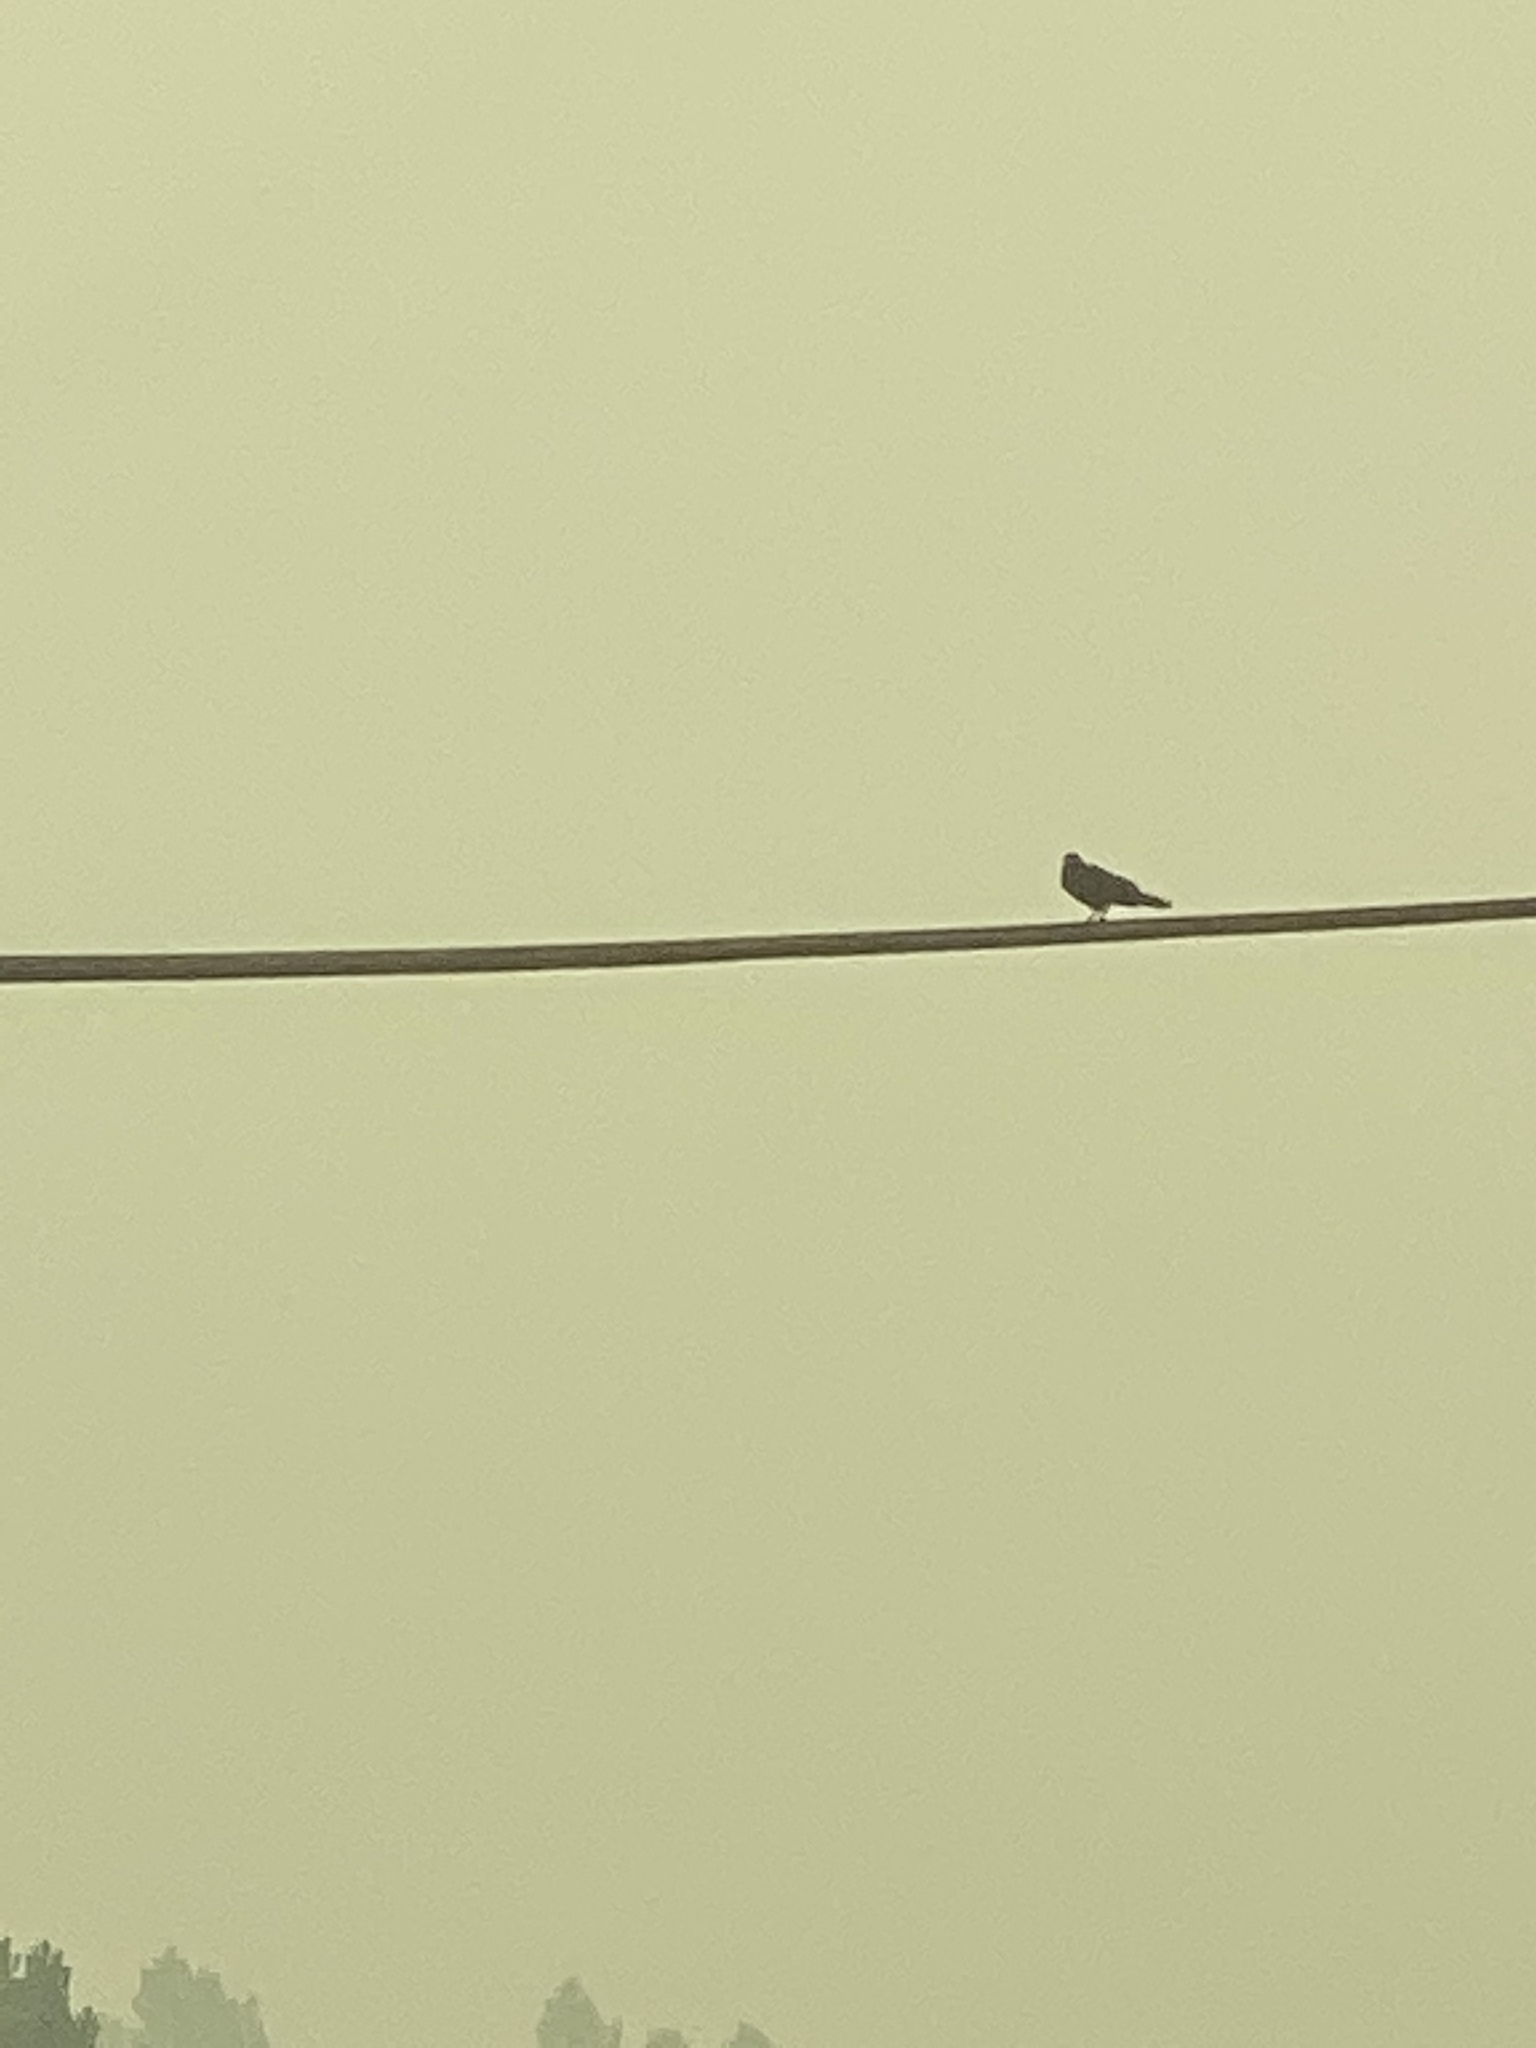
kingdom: Animalia
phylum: Chordata
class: Aves
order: Passeriformes
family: Corvidae
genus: Corvus
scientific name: Corvus brachyrhynchos
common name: American crow
